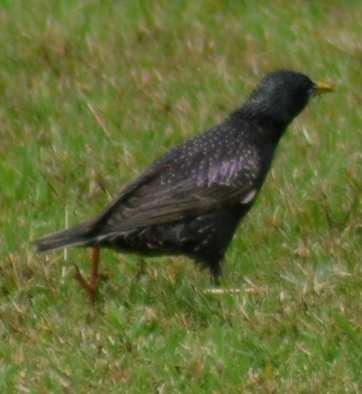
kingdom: Animalia
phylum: Chordata
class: Aves
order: Passeriformes
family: Sturnidae
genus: Sturnus
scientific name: Sturnus vulgaris
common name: Common starling
